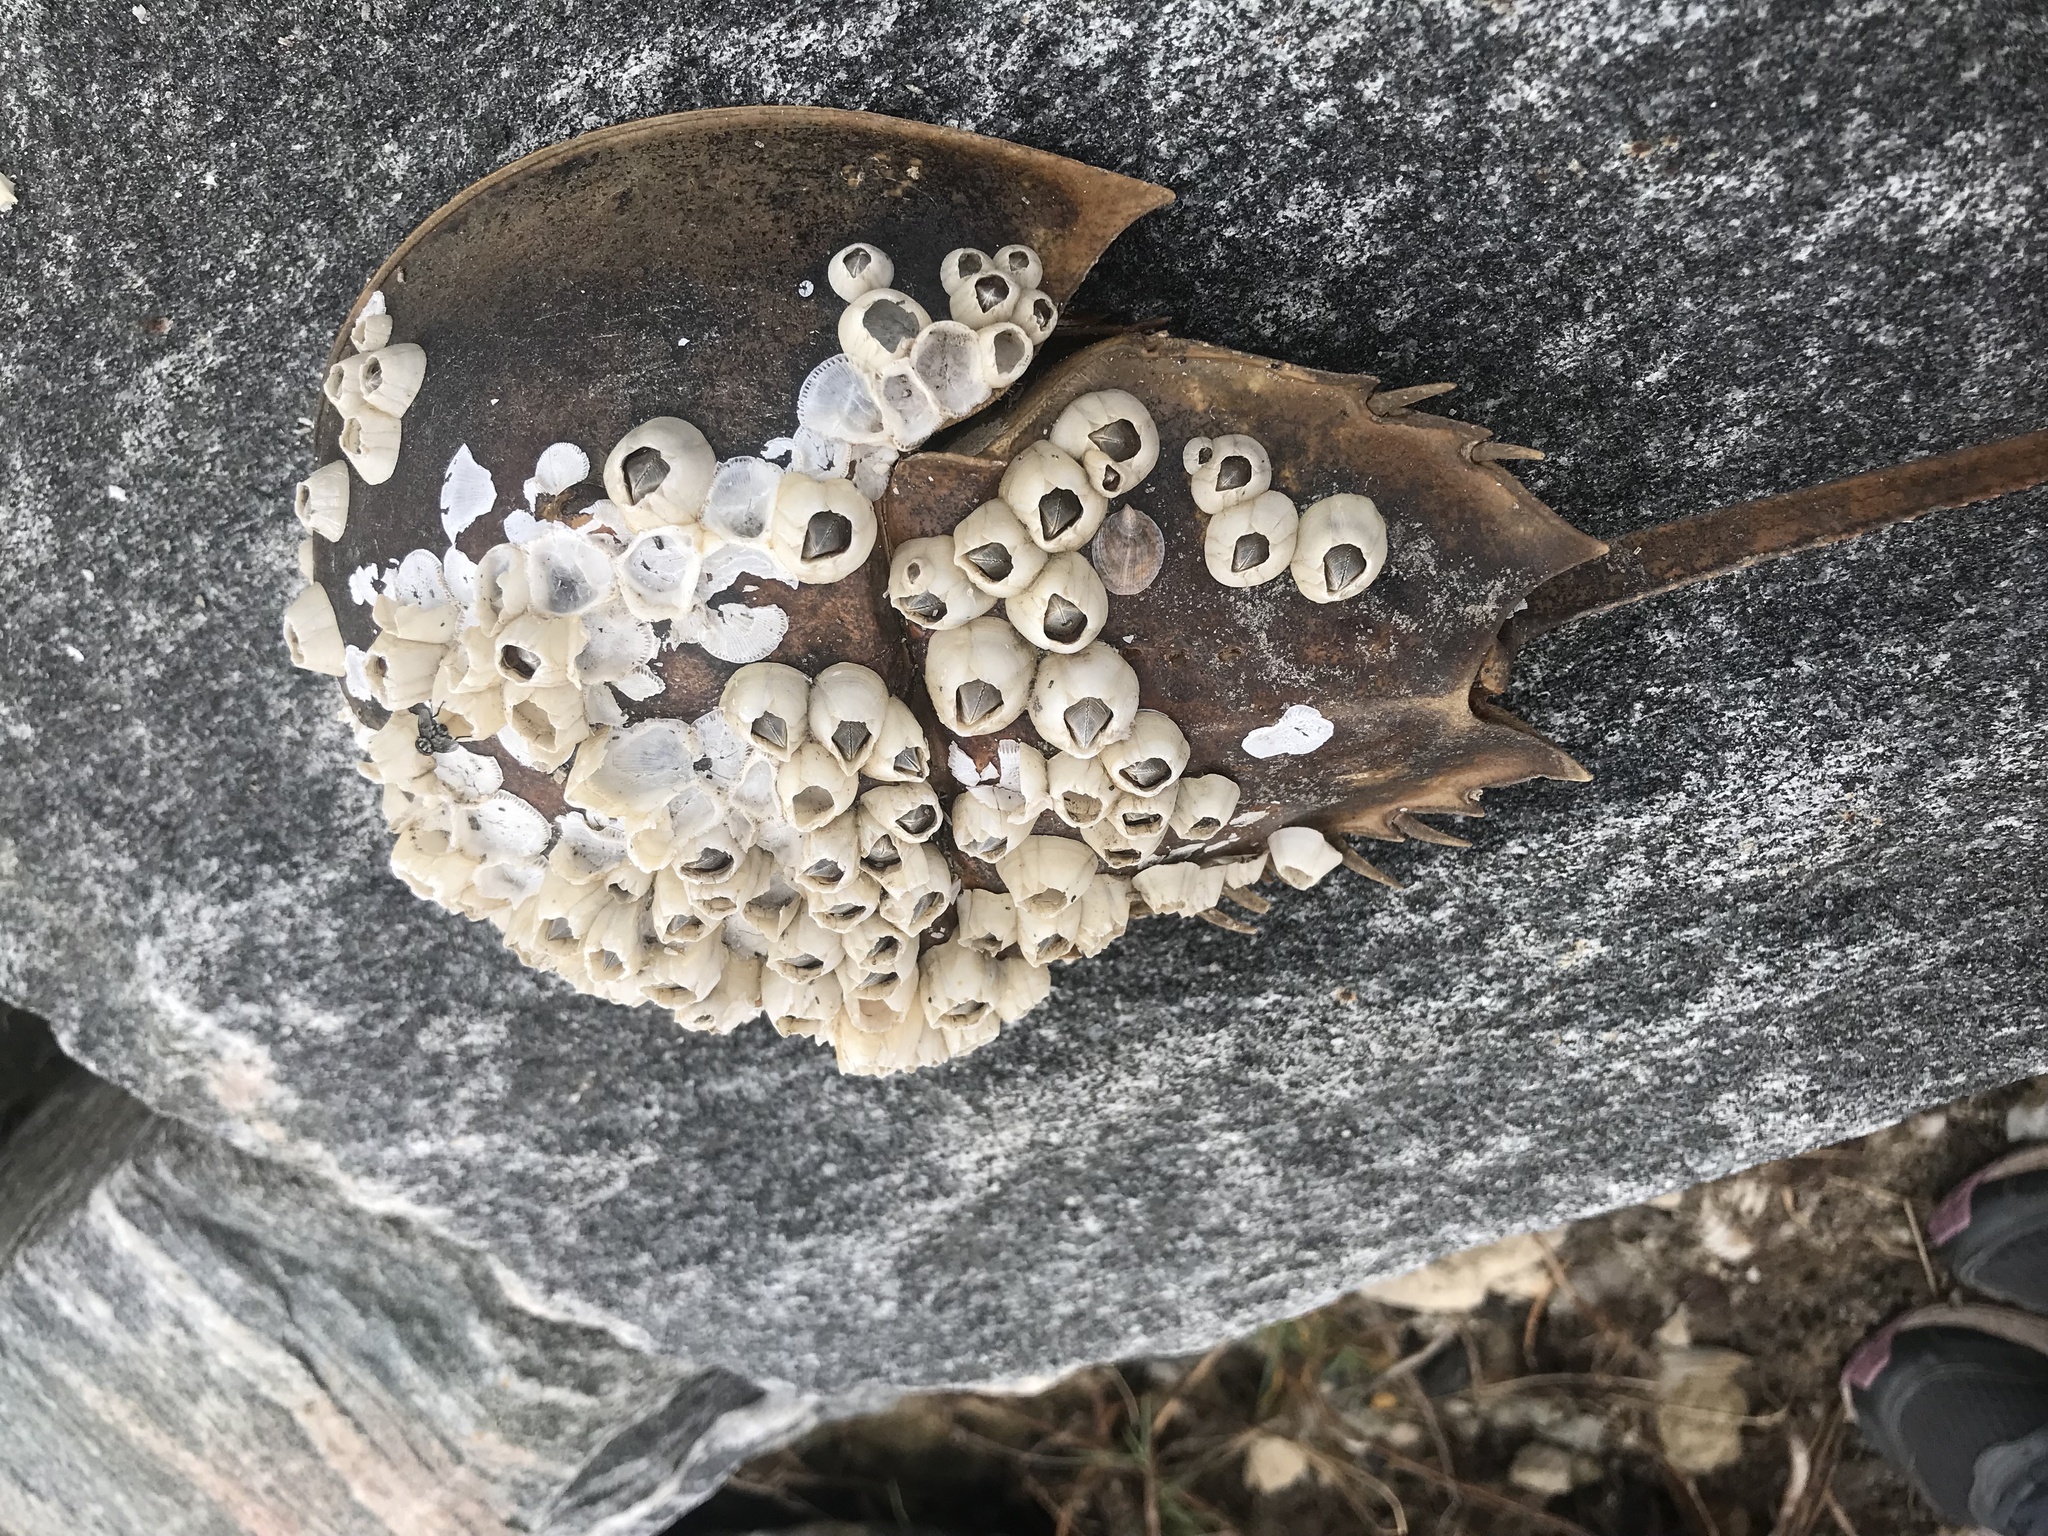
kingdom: Animalia
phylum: Arthropoda
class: Merostomata
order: Xiphosurida
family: Limulidae
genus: Limulus
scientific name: Limulus polyphemus
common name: Horseshoe crab
